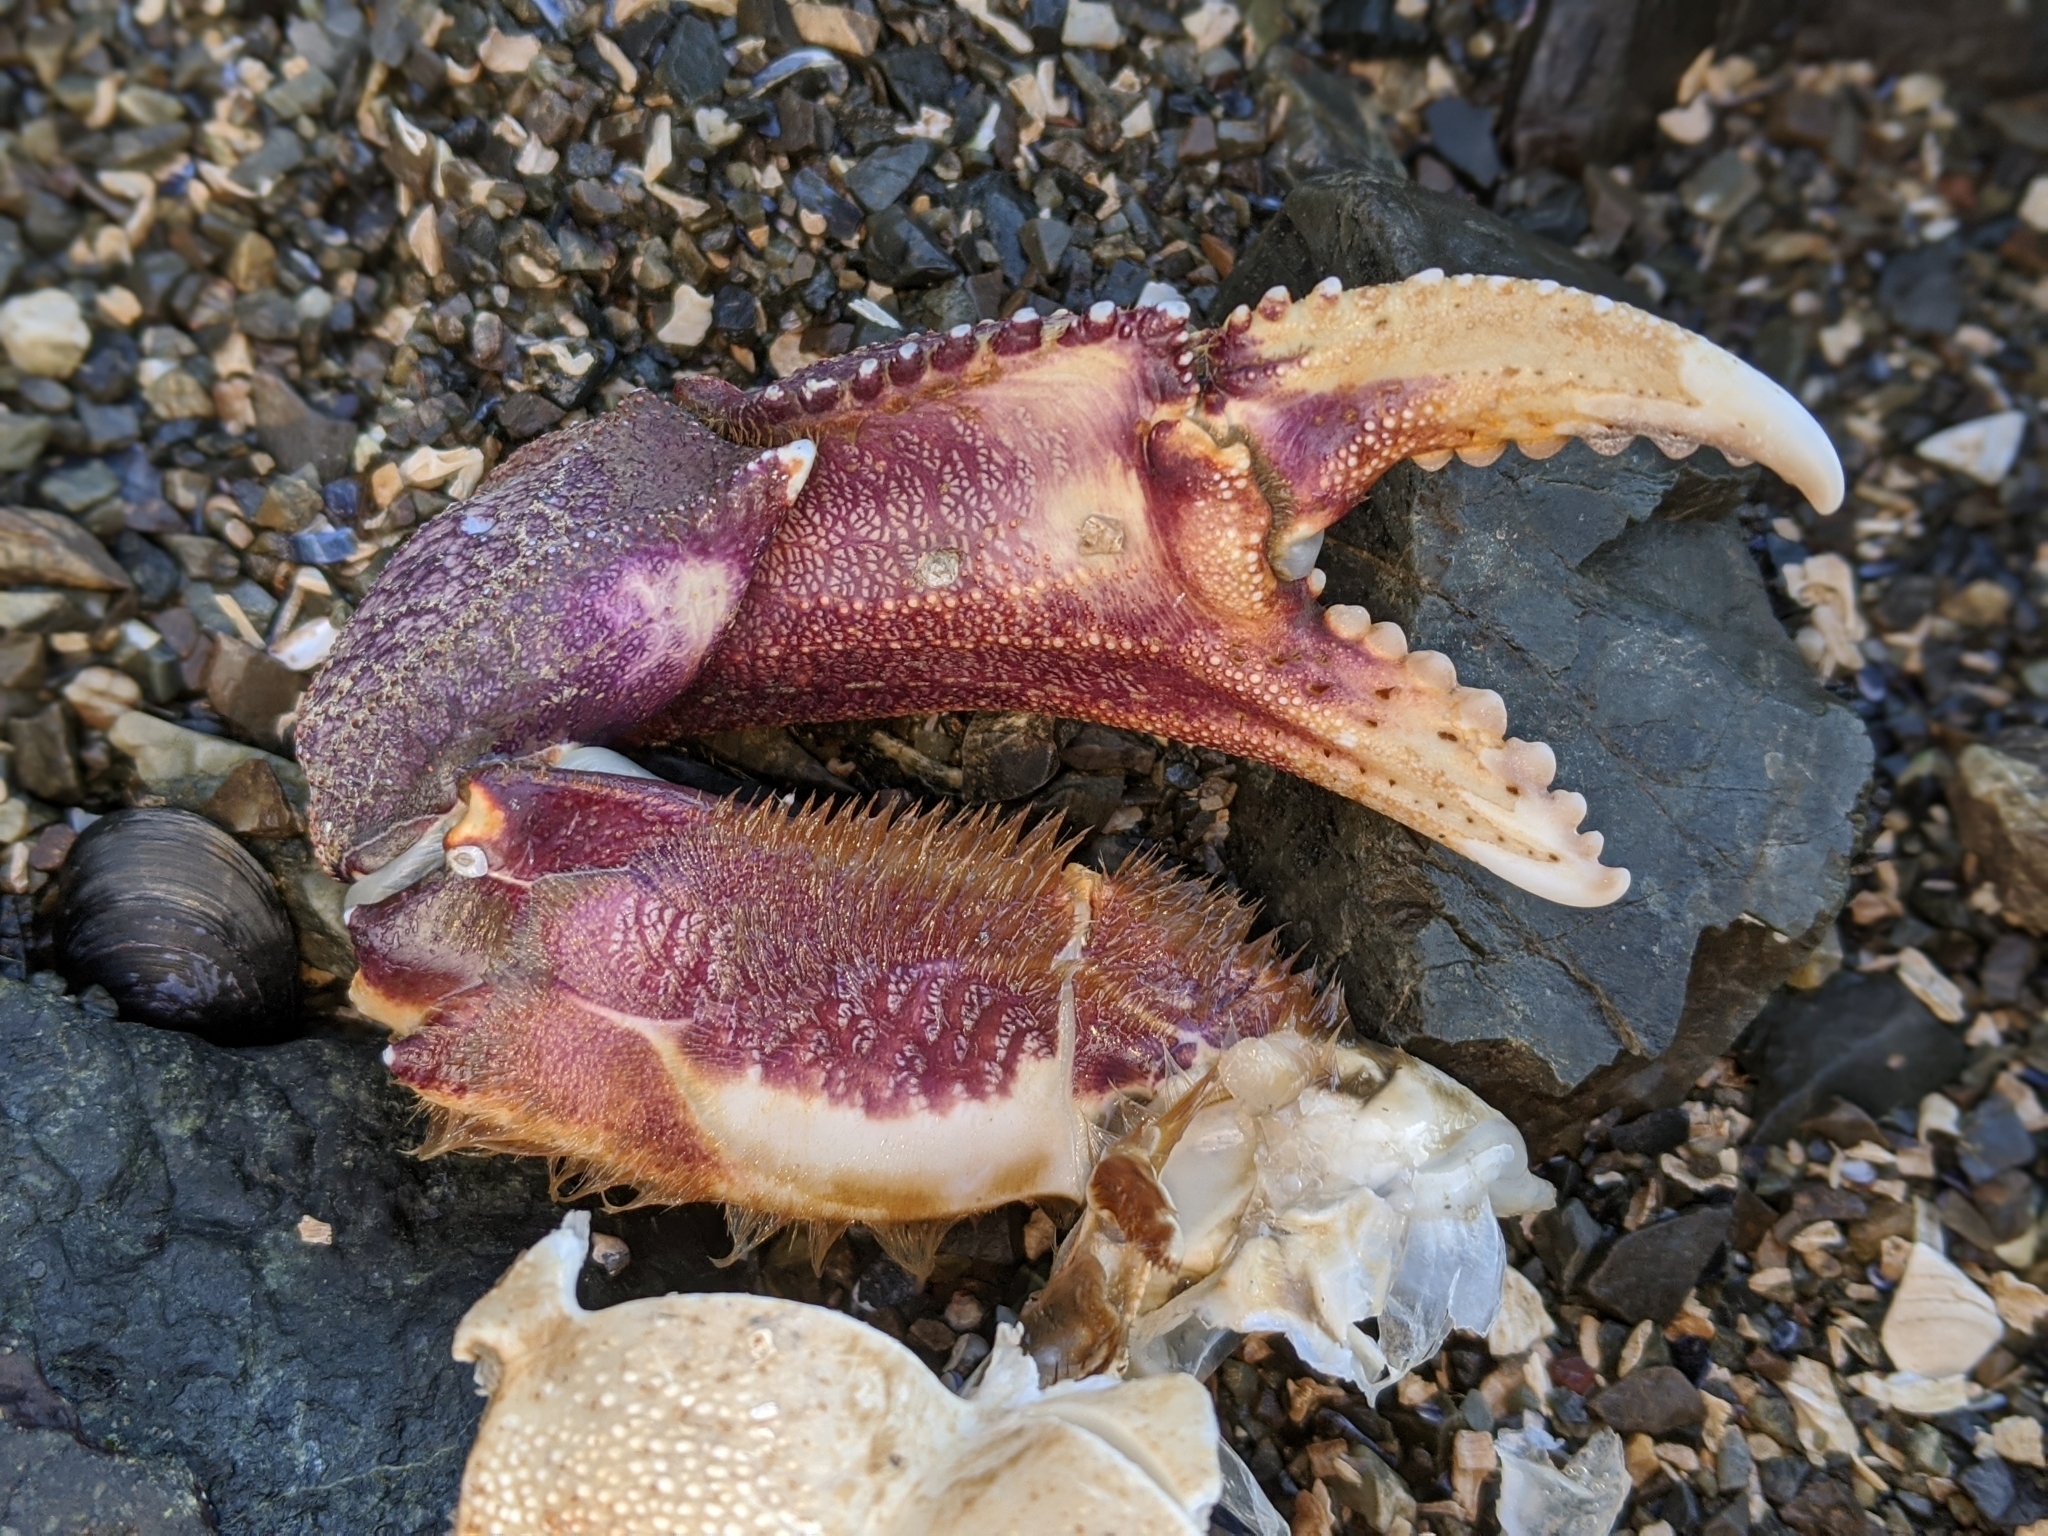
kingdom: Animalia
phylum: Arthropoda
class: Malacostraca
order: Decapoda
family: Cancridae
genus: Metacarcinus
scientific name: Metacarcinus magister
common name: Californian crab
